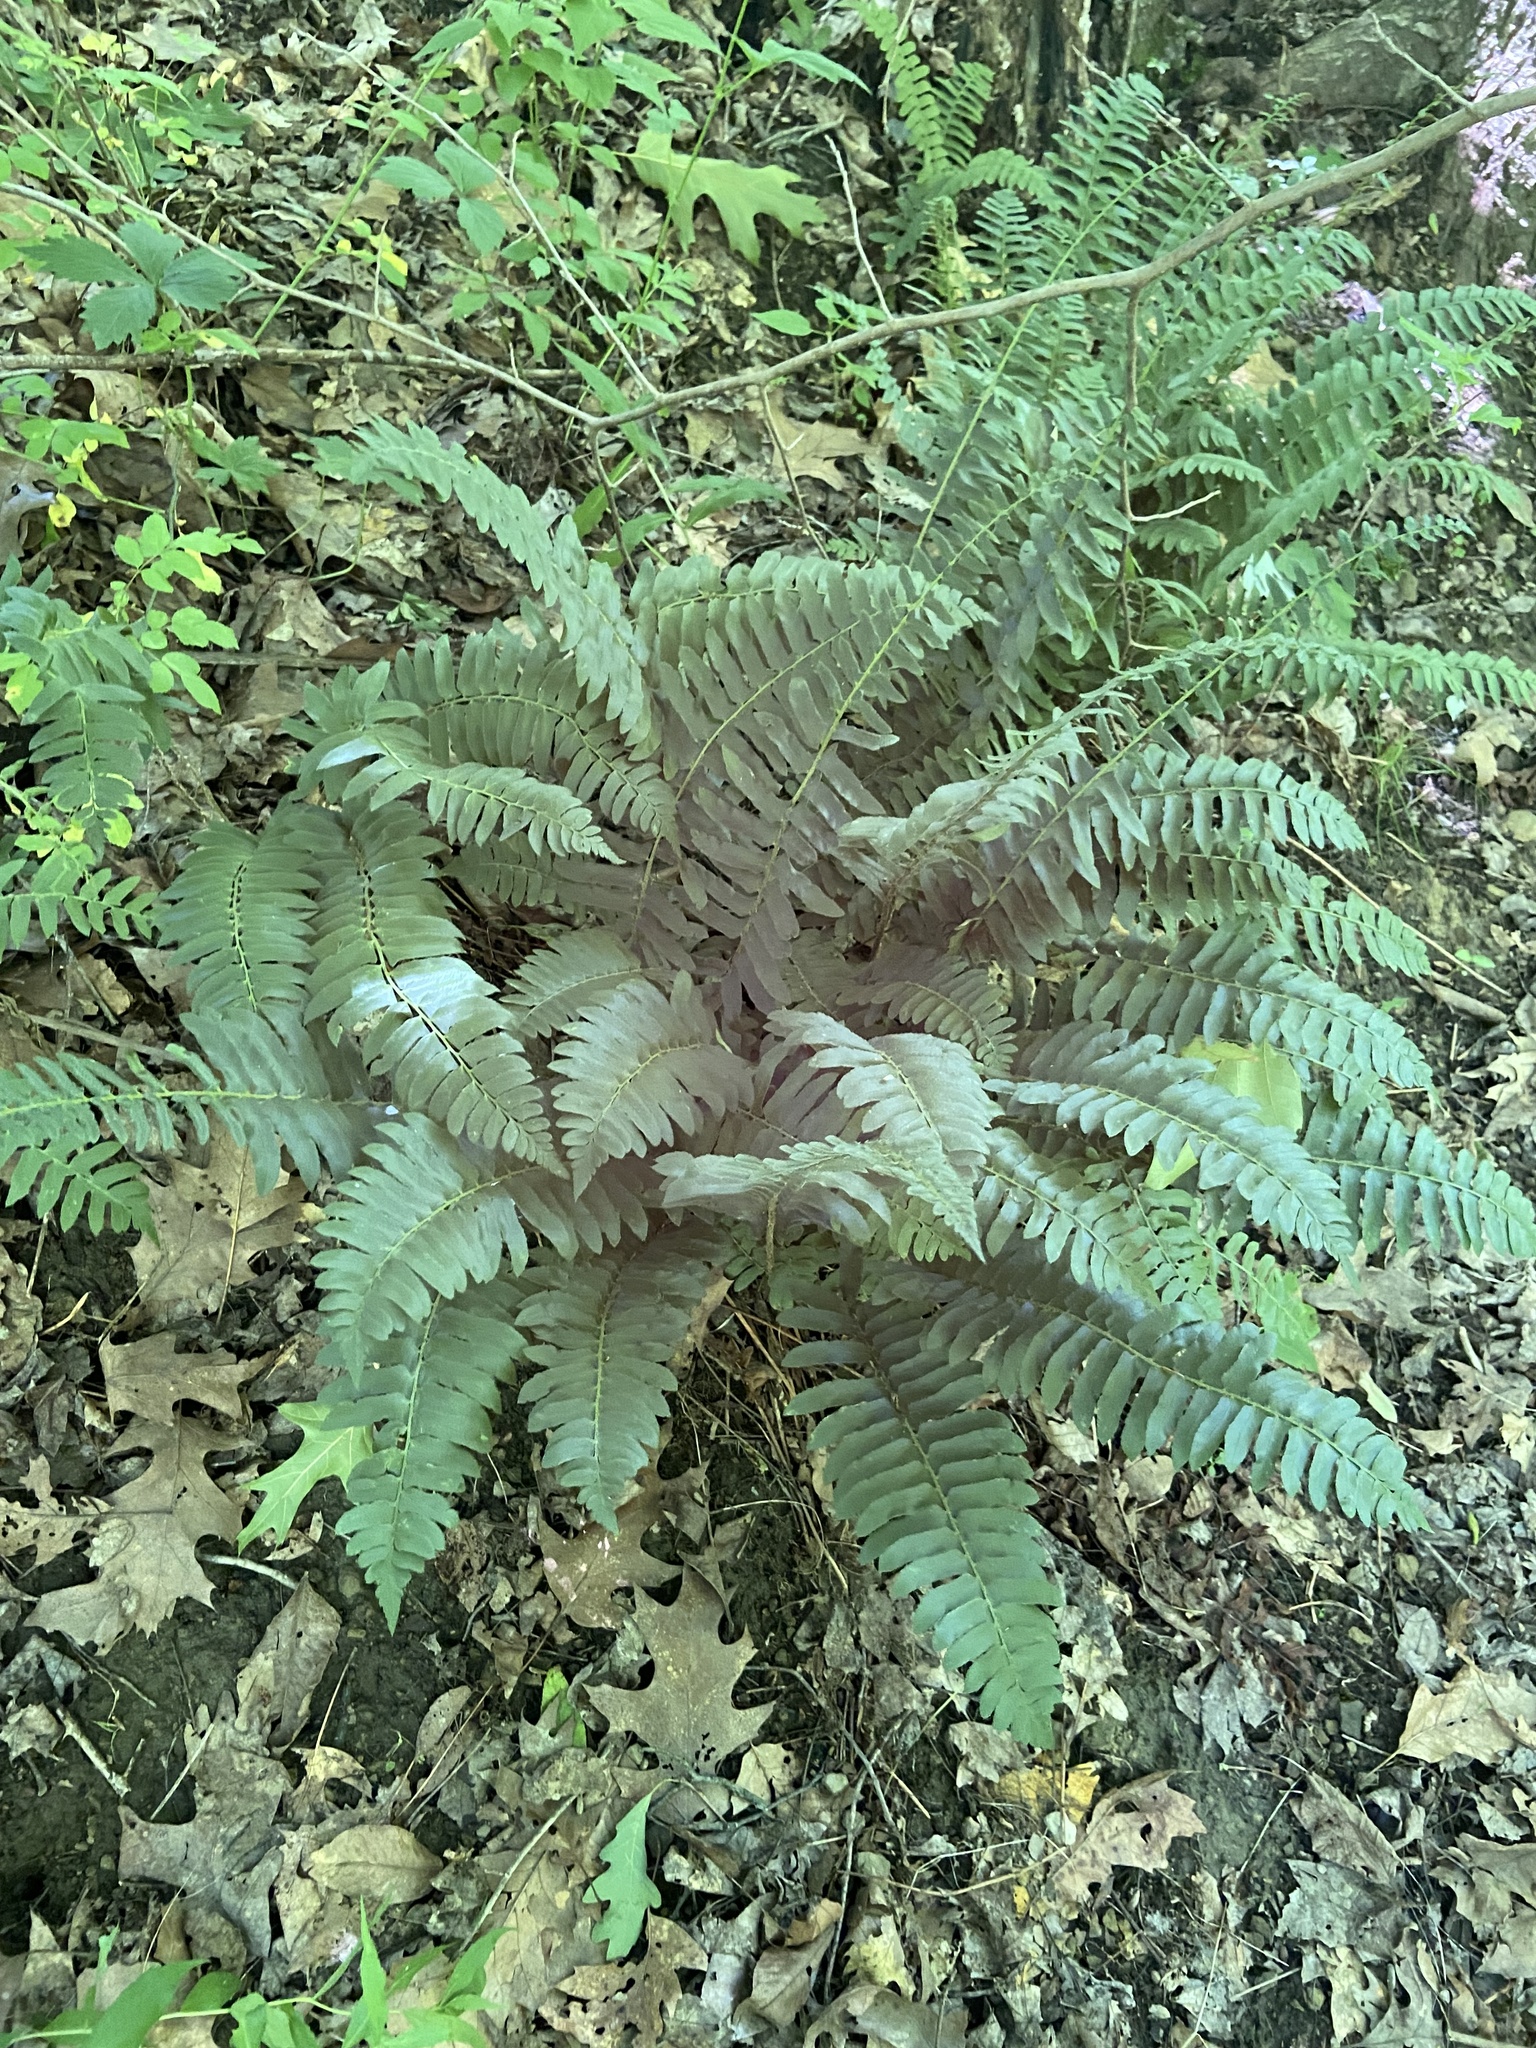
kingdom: Plantae
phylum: Tracheophyta
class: Polypodiopsida
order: Polypodiales
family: Dryopteridaceae
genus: Polystichum
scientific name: Polystichum acrostichoides
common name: Christmas fern
